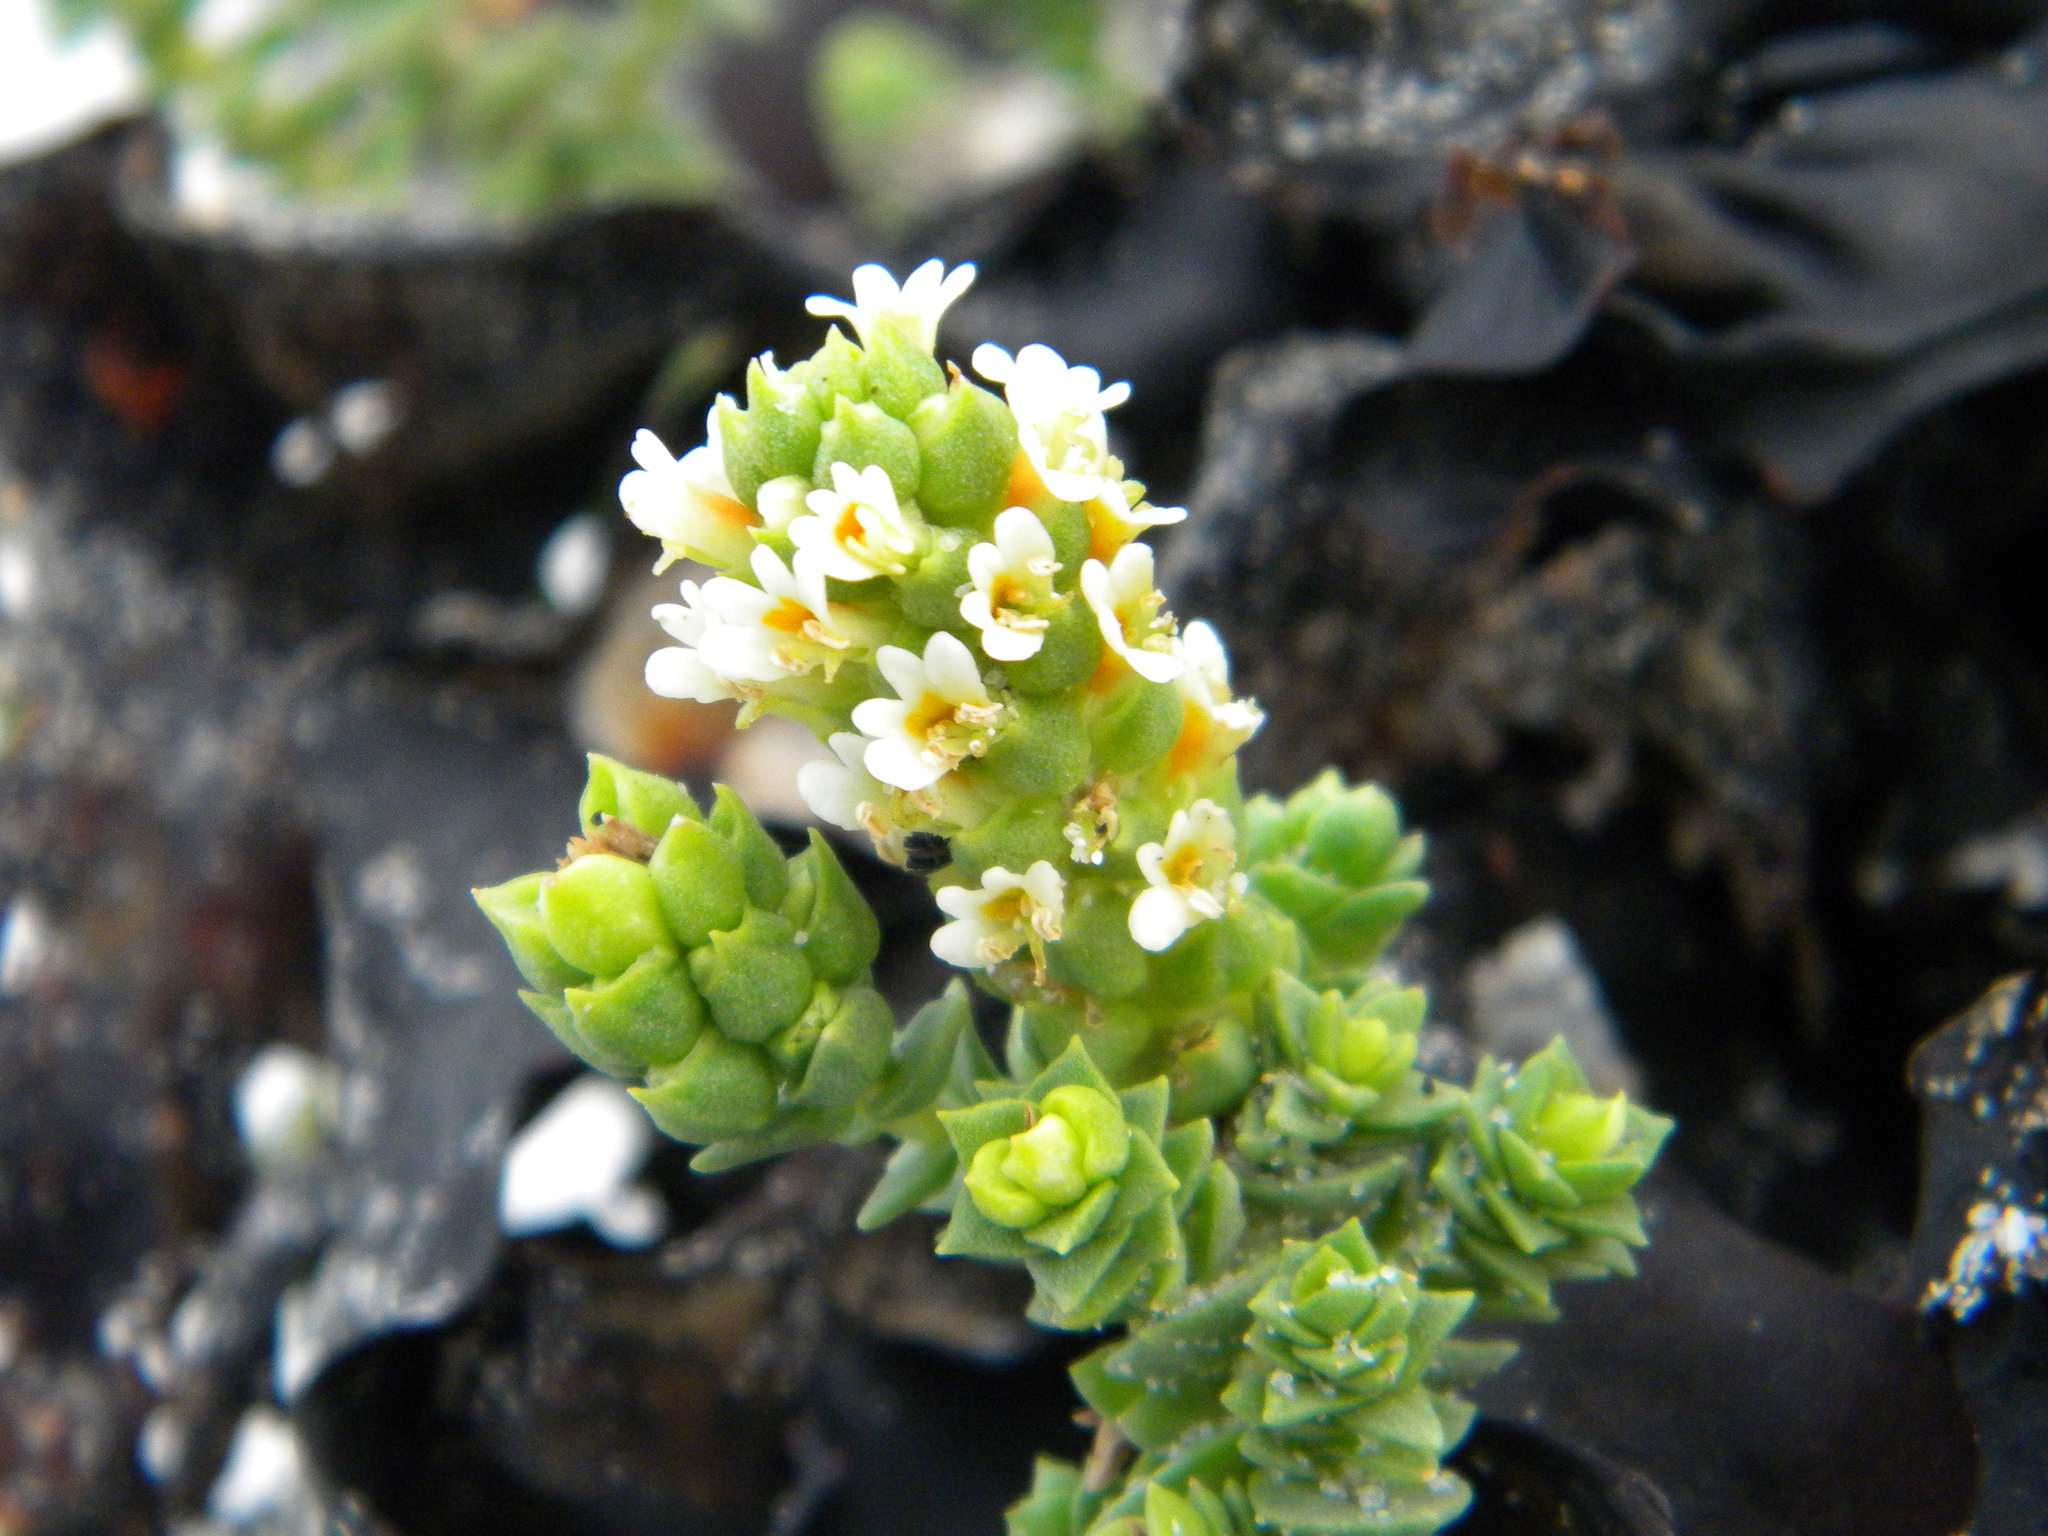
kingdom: Plantae
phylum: Tracheophyta
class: Magnoliopsida
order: Lamiales
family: Scrophulariaceae
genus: Hebenstretia
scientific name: Hebenstretia cordata
